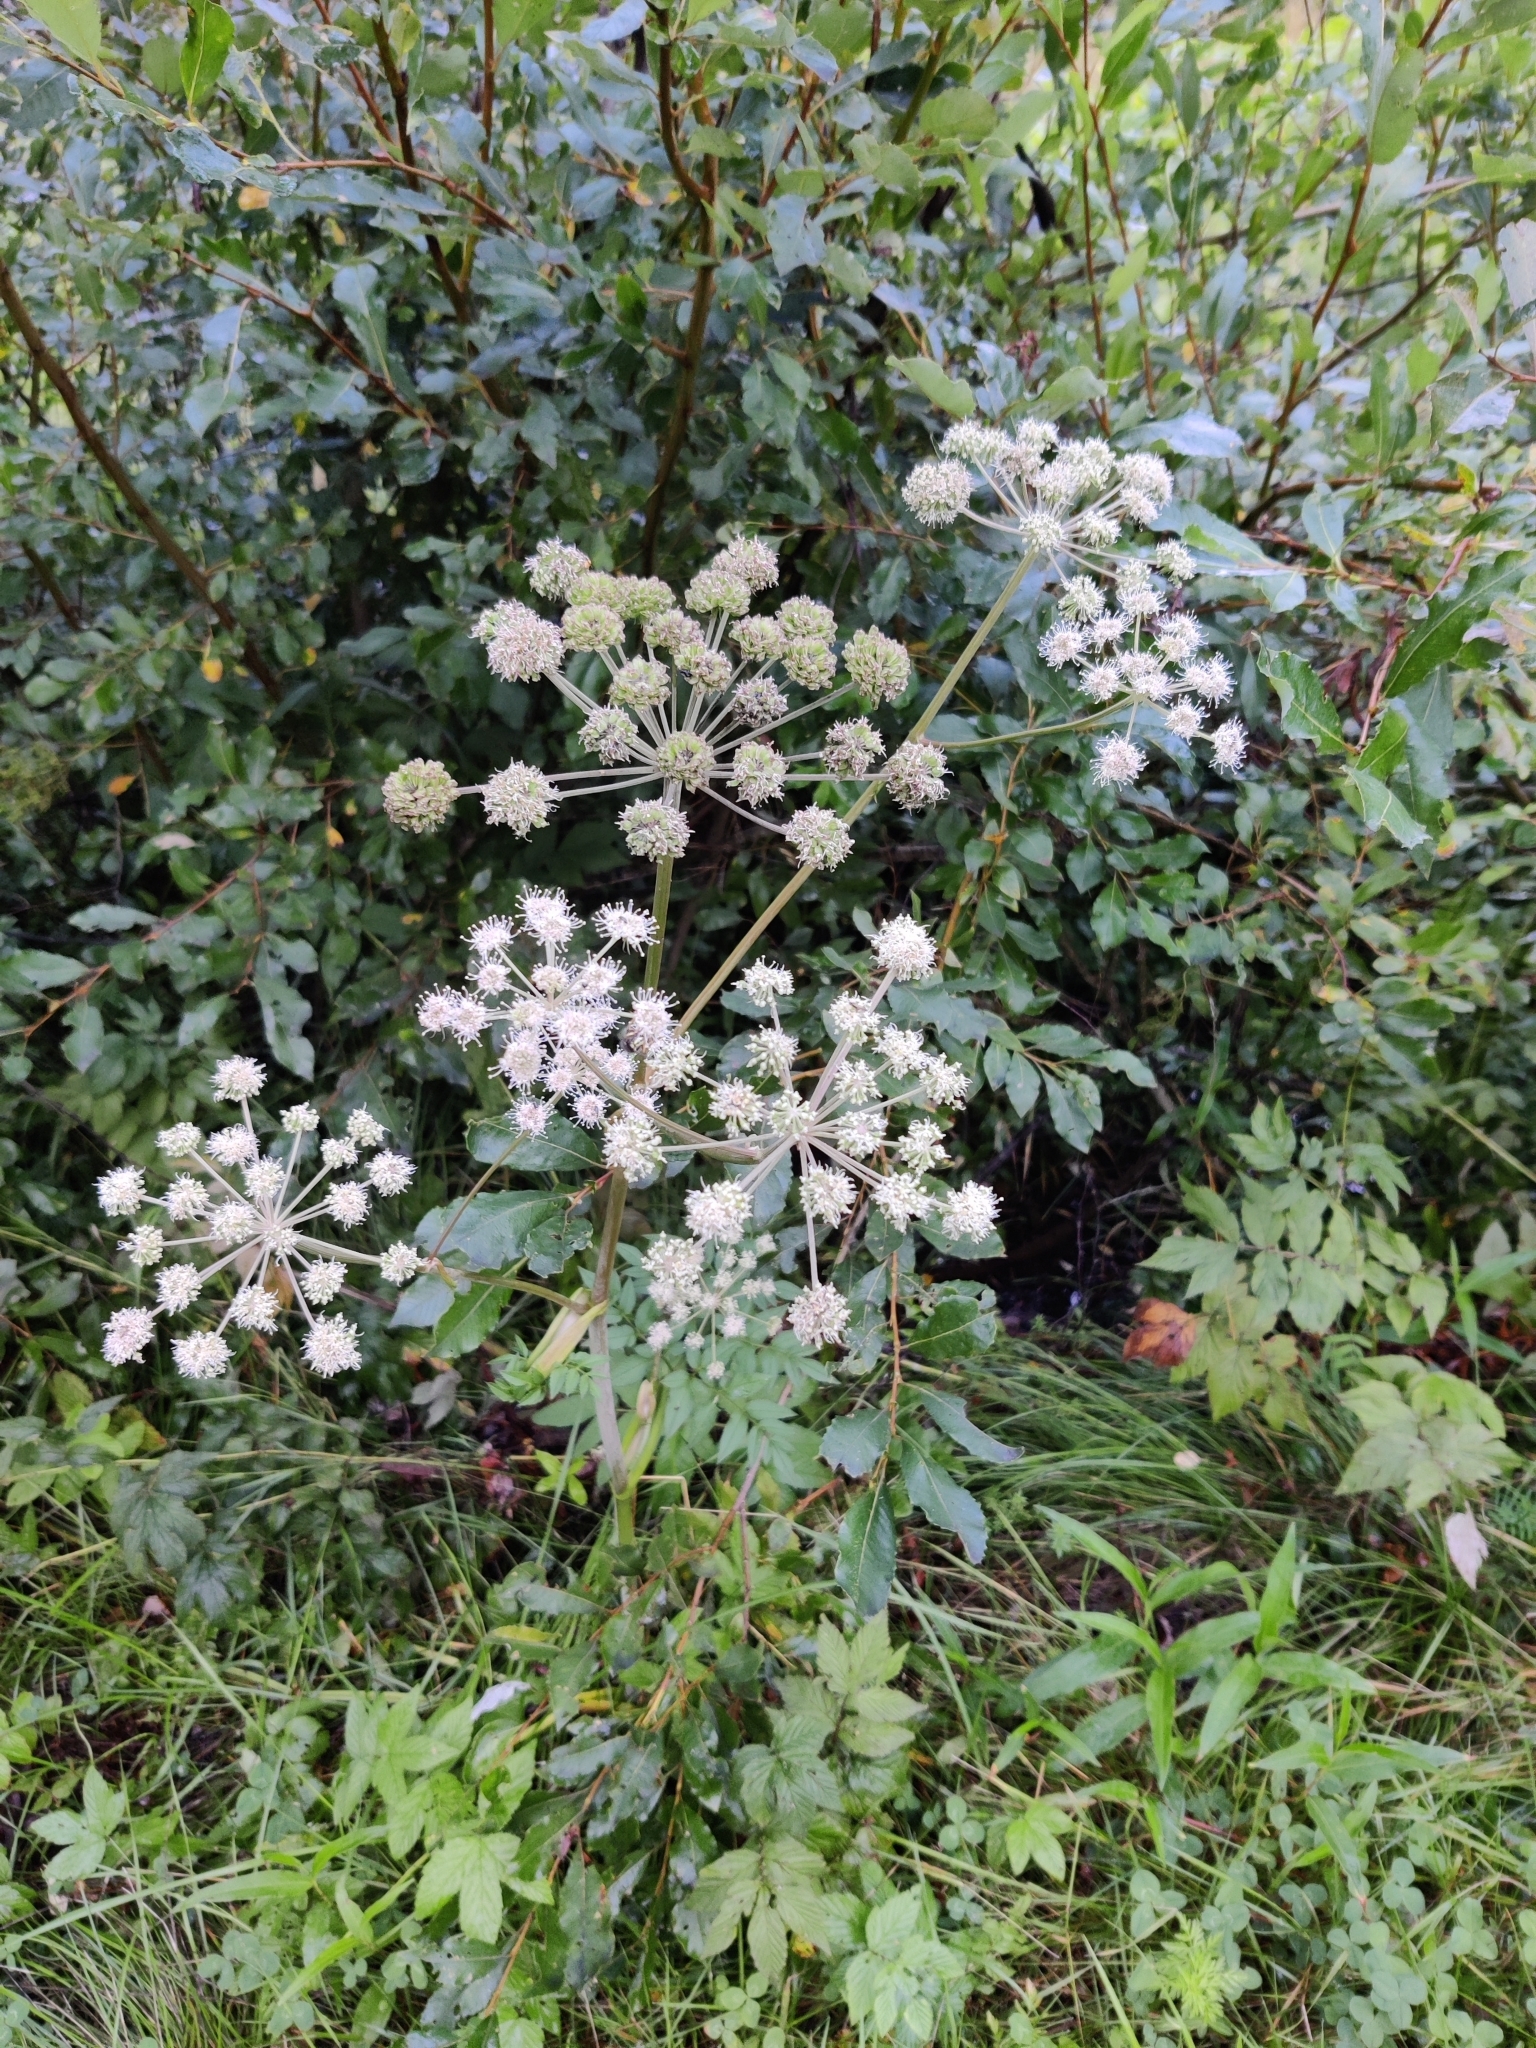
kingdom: Plantae
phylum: Tracheophyta
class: Magnoliopsida
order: Apiales
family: Apiaceae
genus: Angelica
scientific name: Angelica sylvestris
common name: Wild angelica
